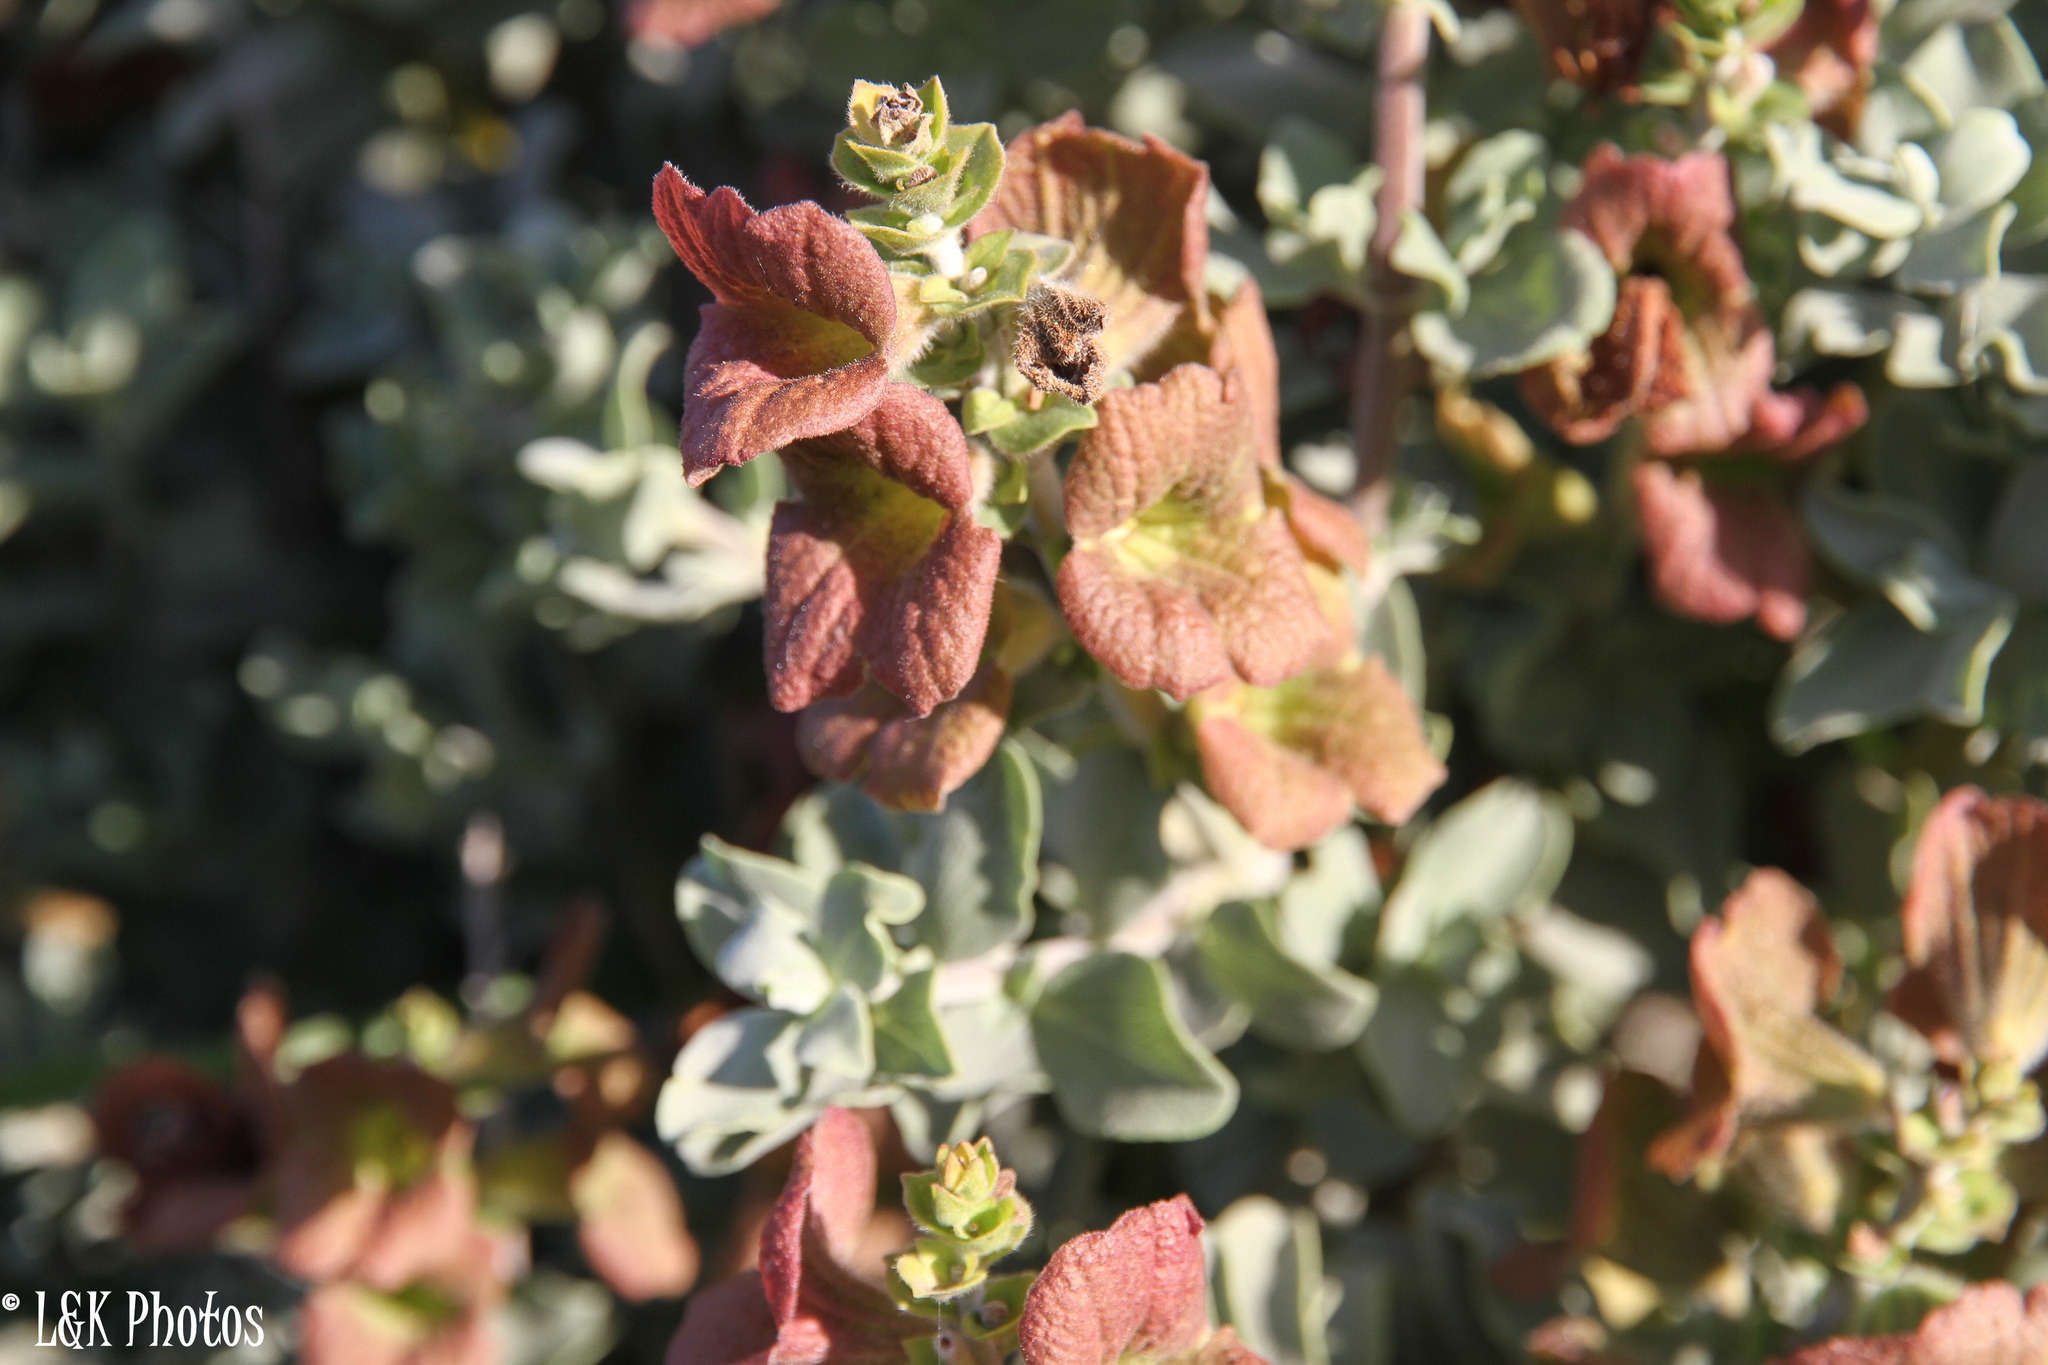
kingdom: Plantae
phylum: Tracheophyta
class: Magnoliopsida
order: Lamiales
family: Lamiaceae
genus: Salvia
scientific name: Salvia aurea
